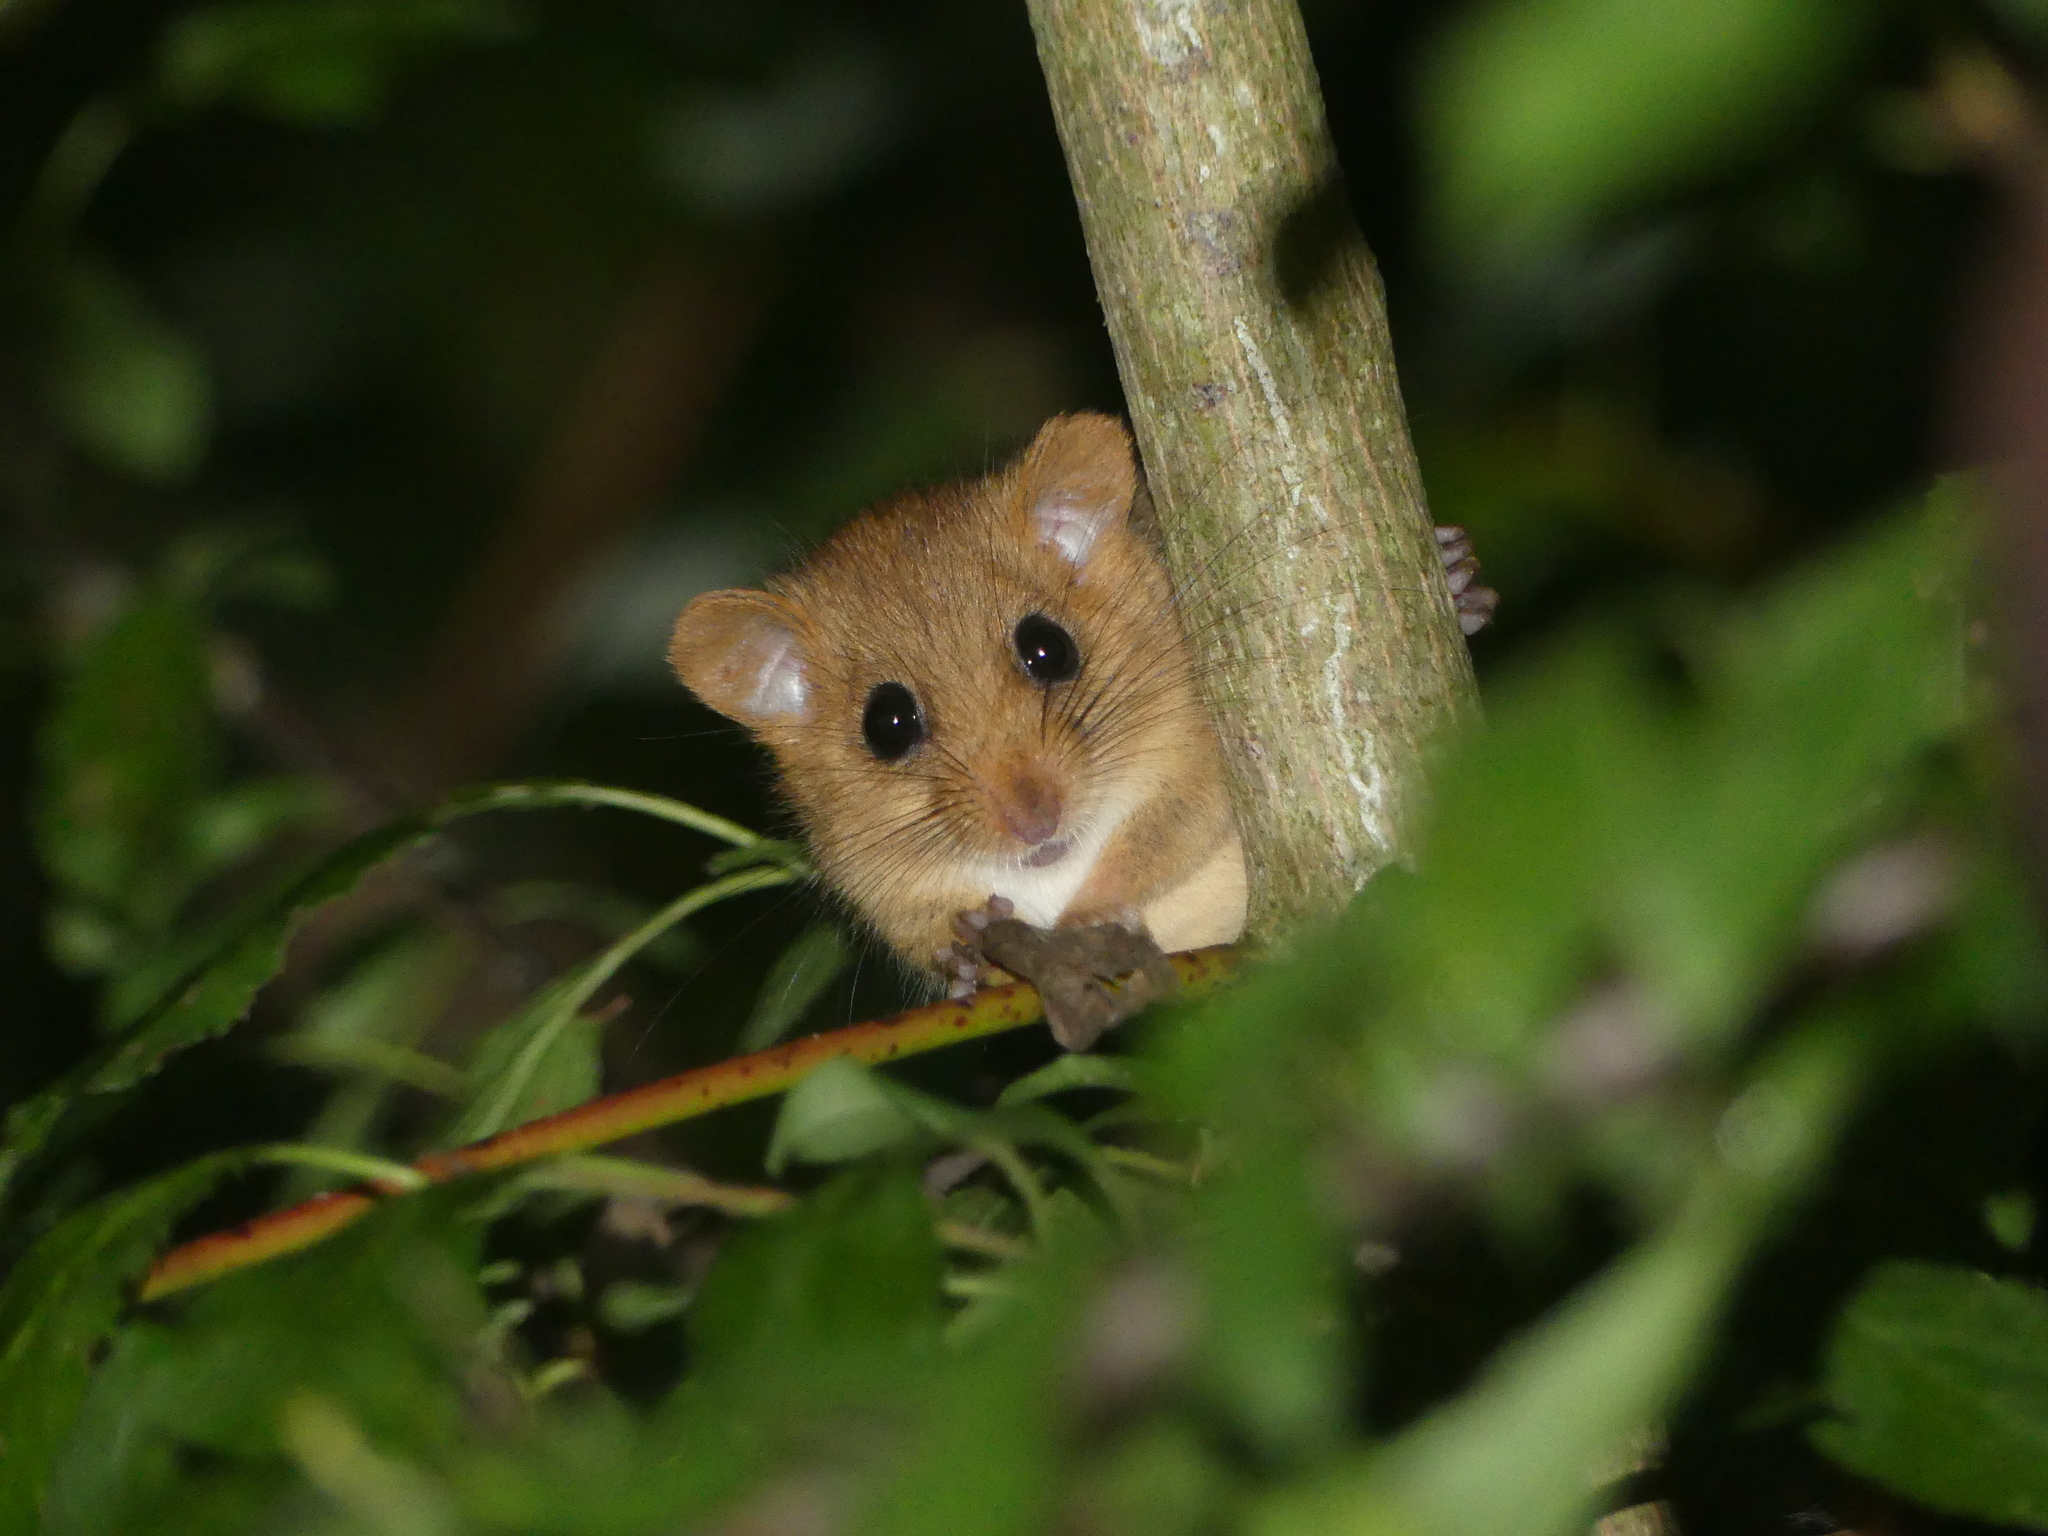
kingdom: Animalia
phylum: Chordata
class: Mammalia
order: Rodentia
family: Gliridae
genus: Muscardinus
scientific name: Muscardinus avellanarius
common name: Hazel dormouse
